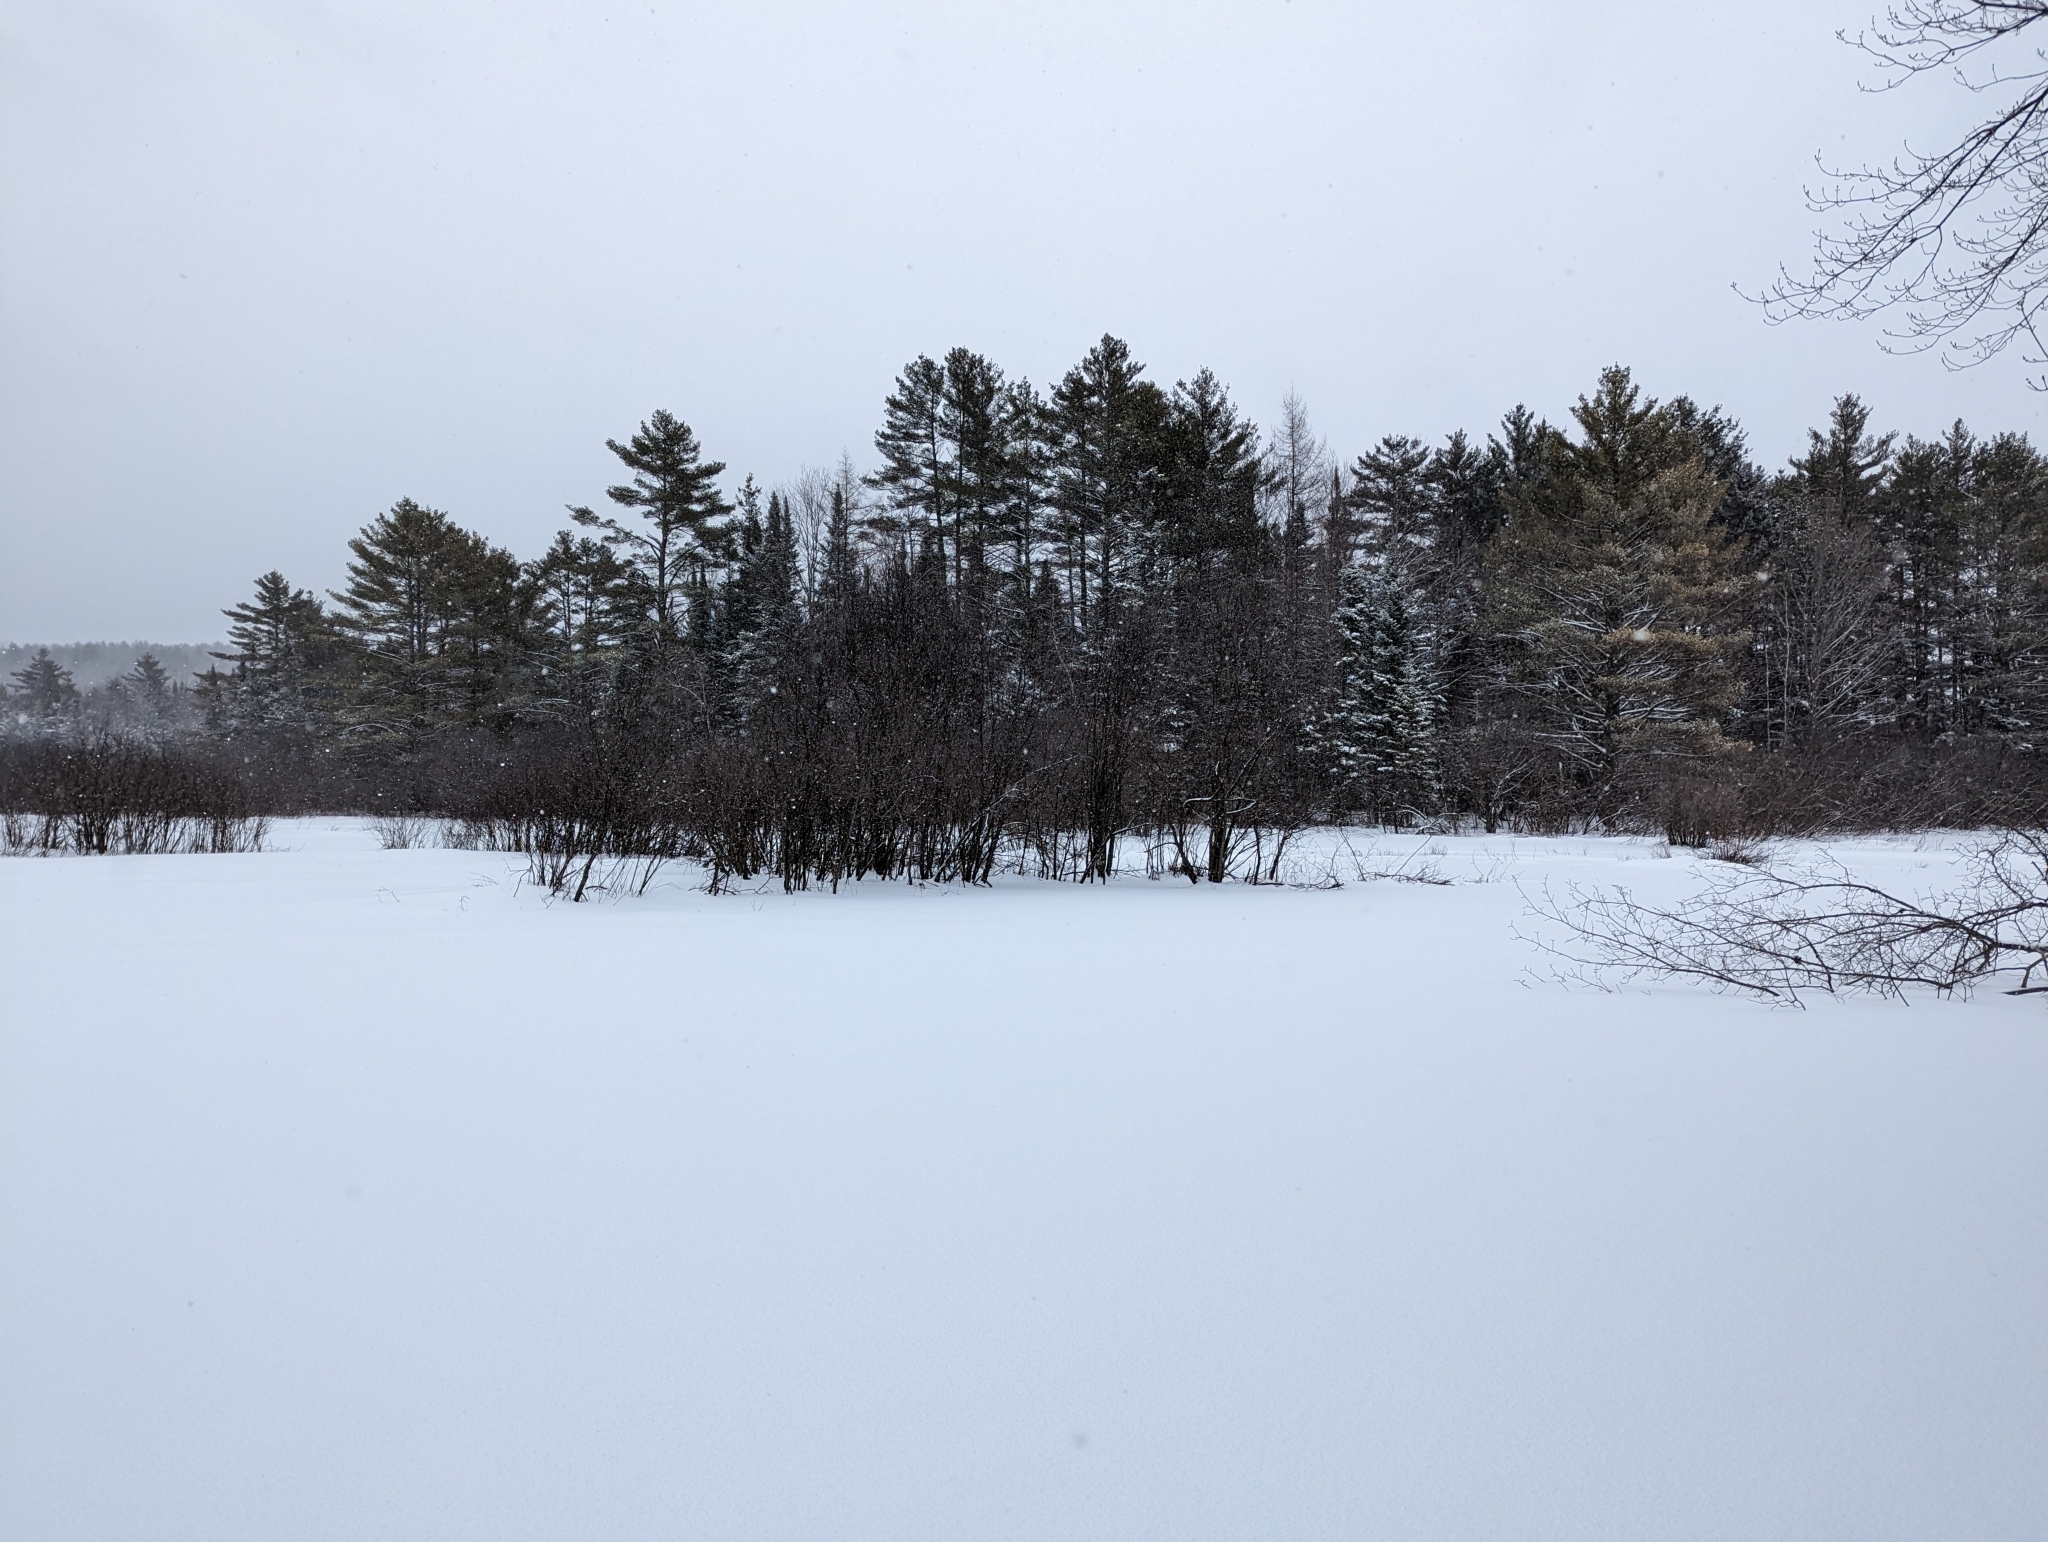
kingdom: Plantae
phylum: Tracheophyta
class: Pinopsida
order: Pinales
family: Pinaceae
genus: Pinus
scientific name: Pinus strobus
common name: Weymouth pine
